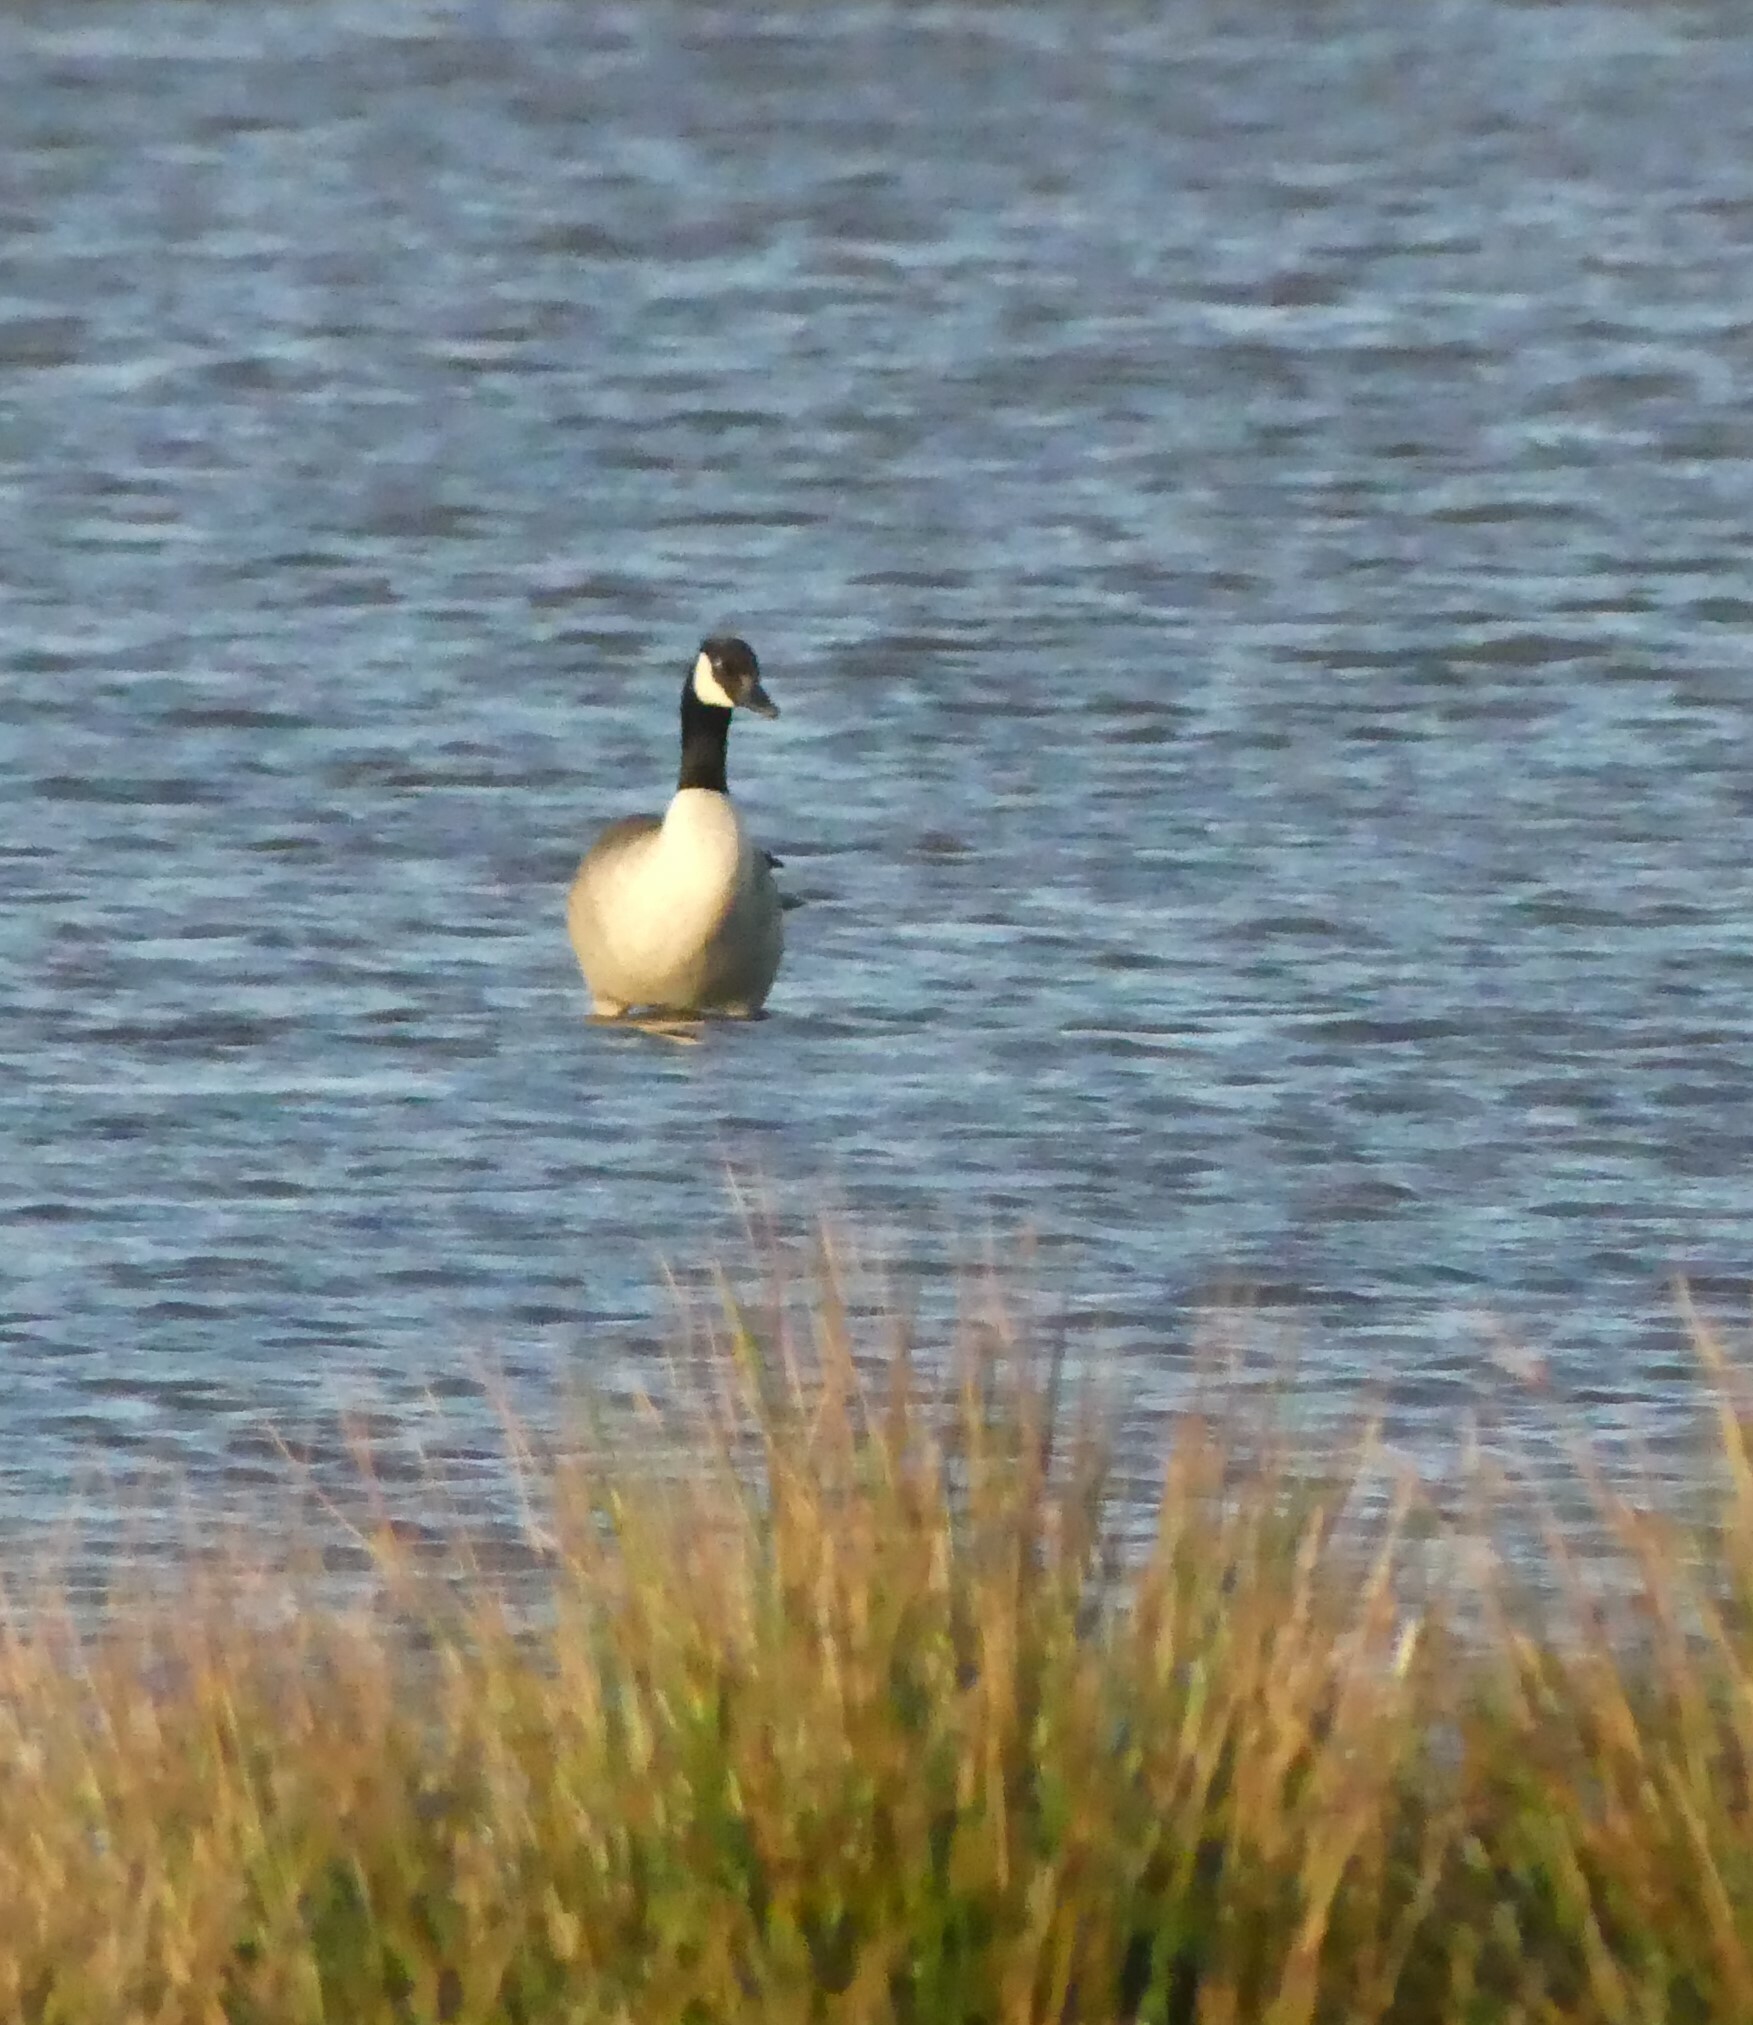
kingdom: Animalia
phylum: Chordata
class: Aves
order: Anseriformes
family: Anatidae
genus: Branta
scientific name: Branta canadensis
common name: Canada goose
